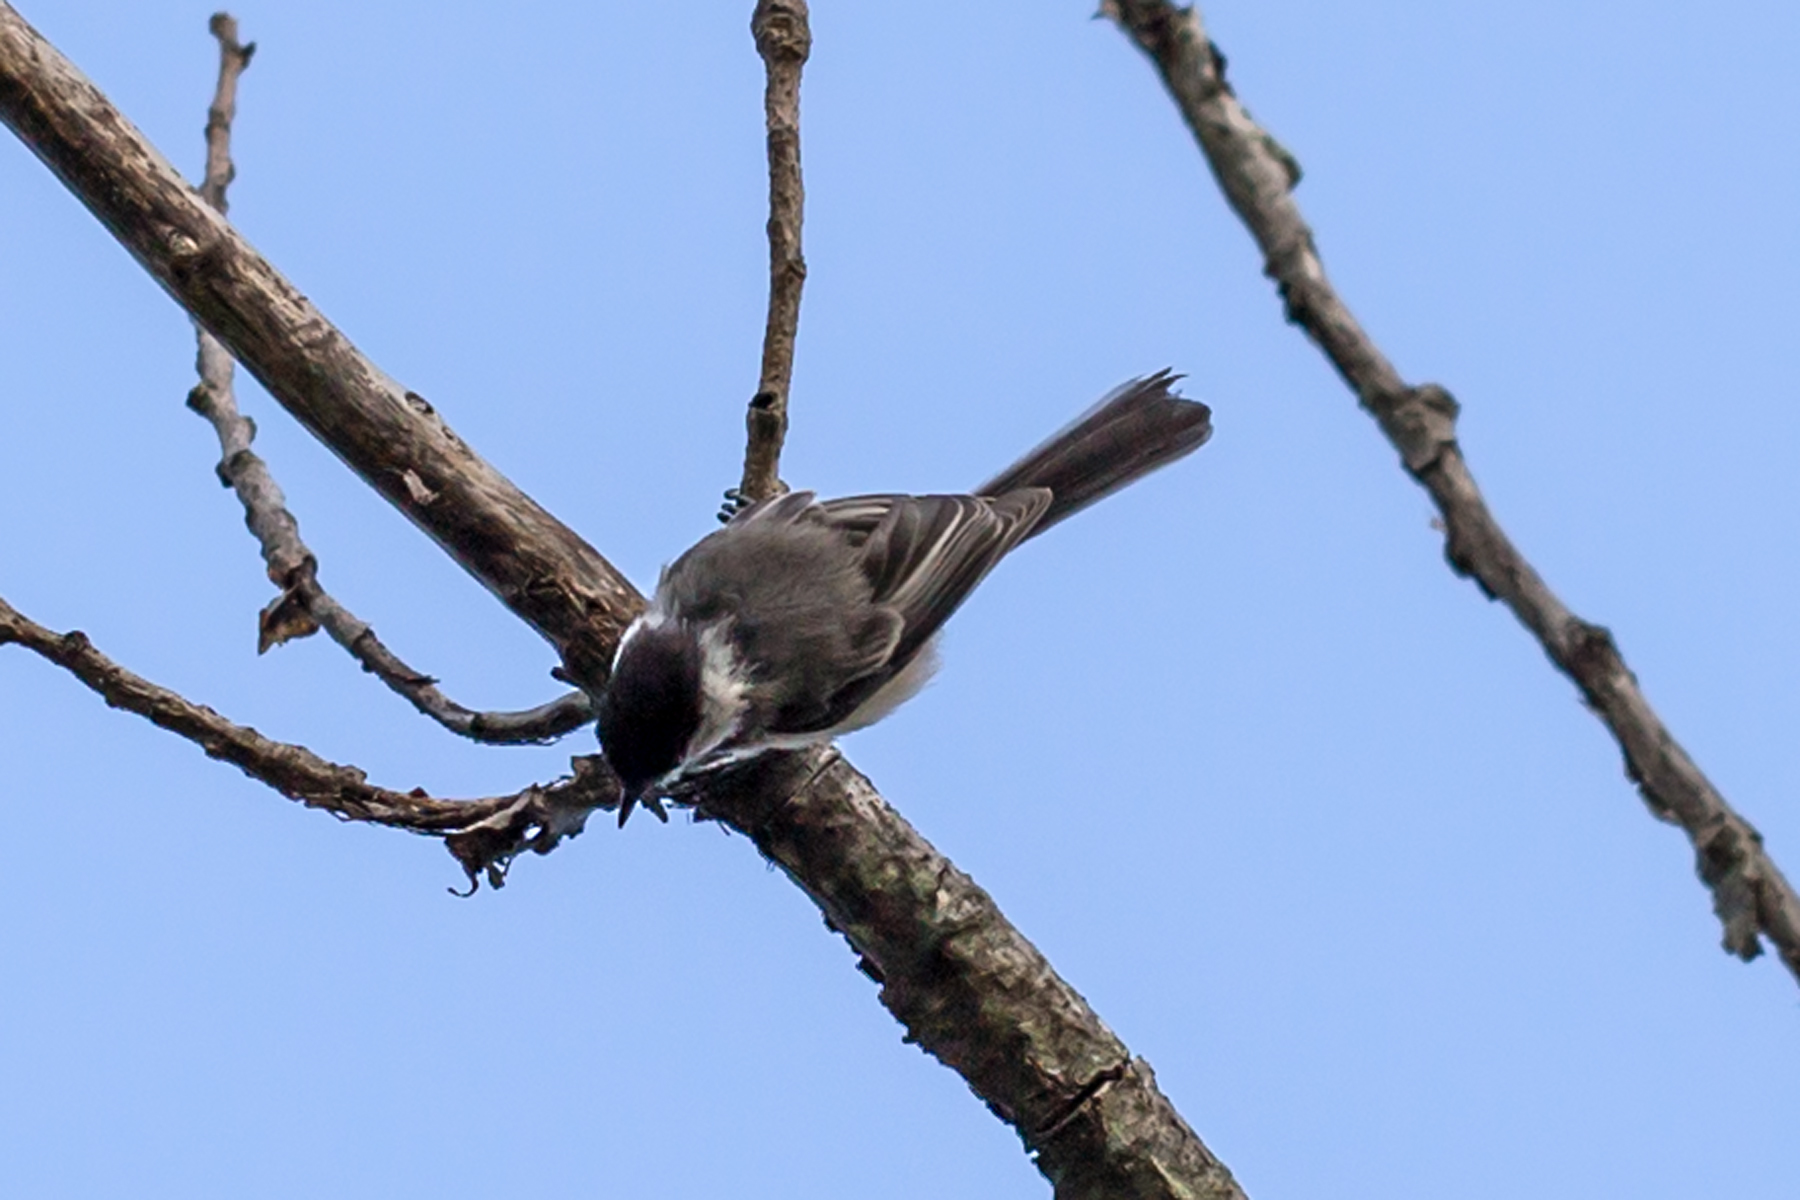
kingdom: Animalia
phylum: Chordata
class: Aves
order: Passeriformes
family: Paridae
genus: Poecile
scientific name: Poecile atricapillus
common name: Black-capped chickadee
